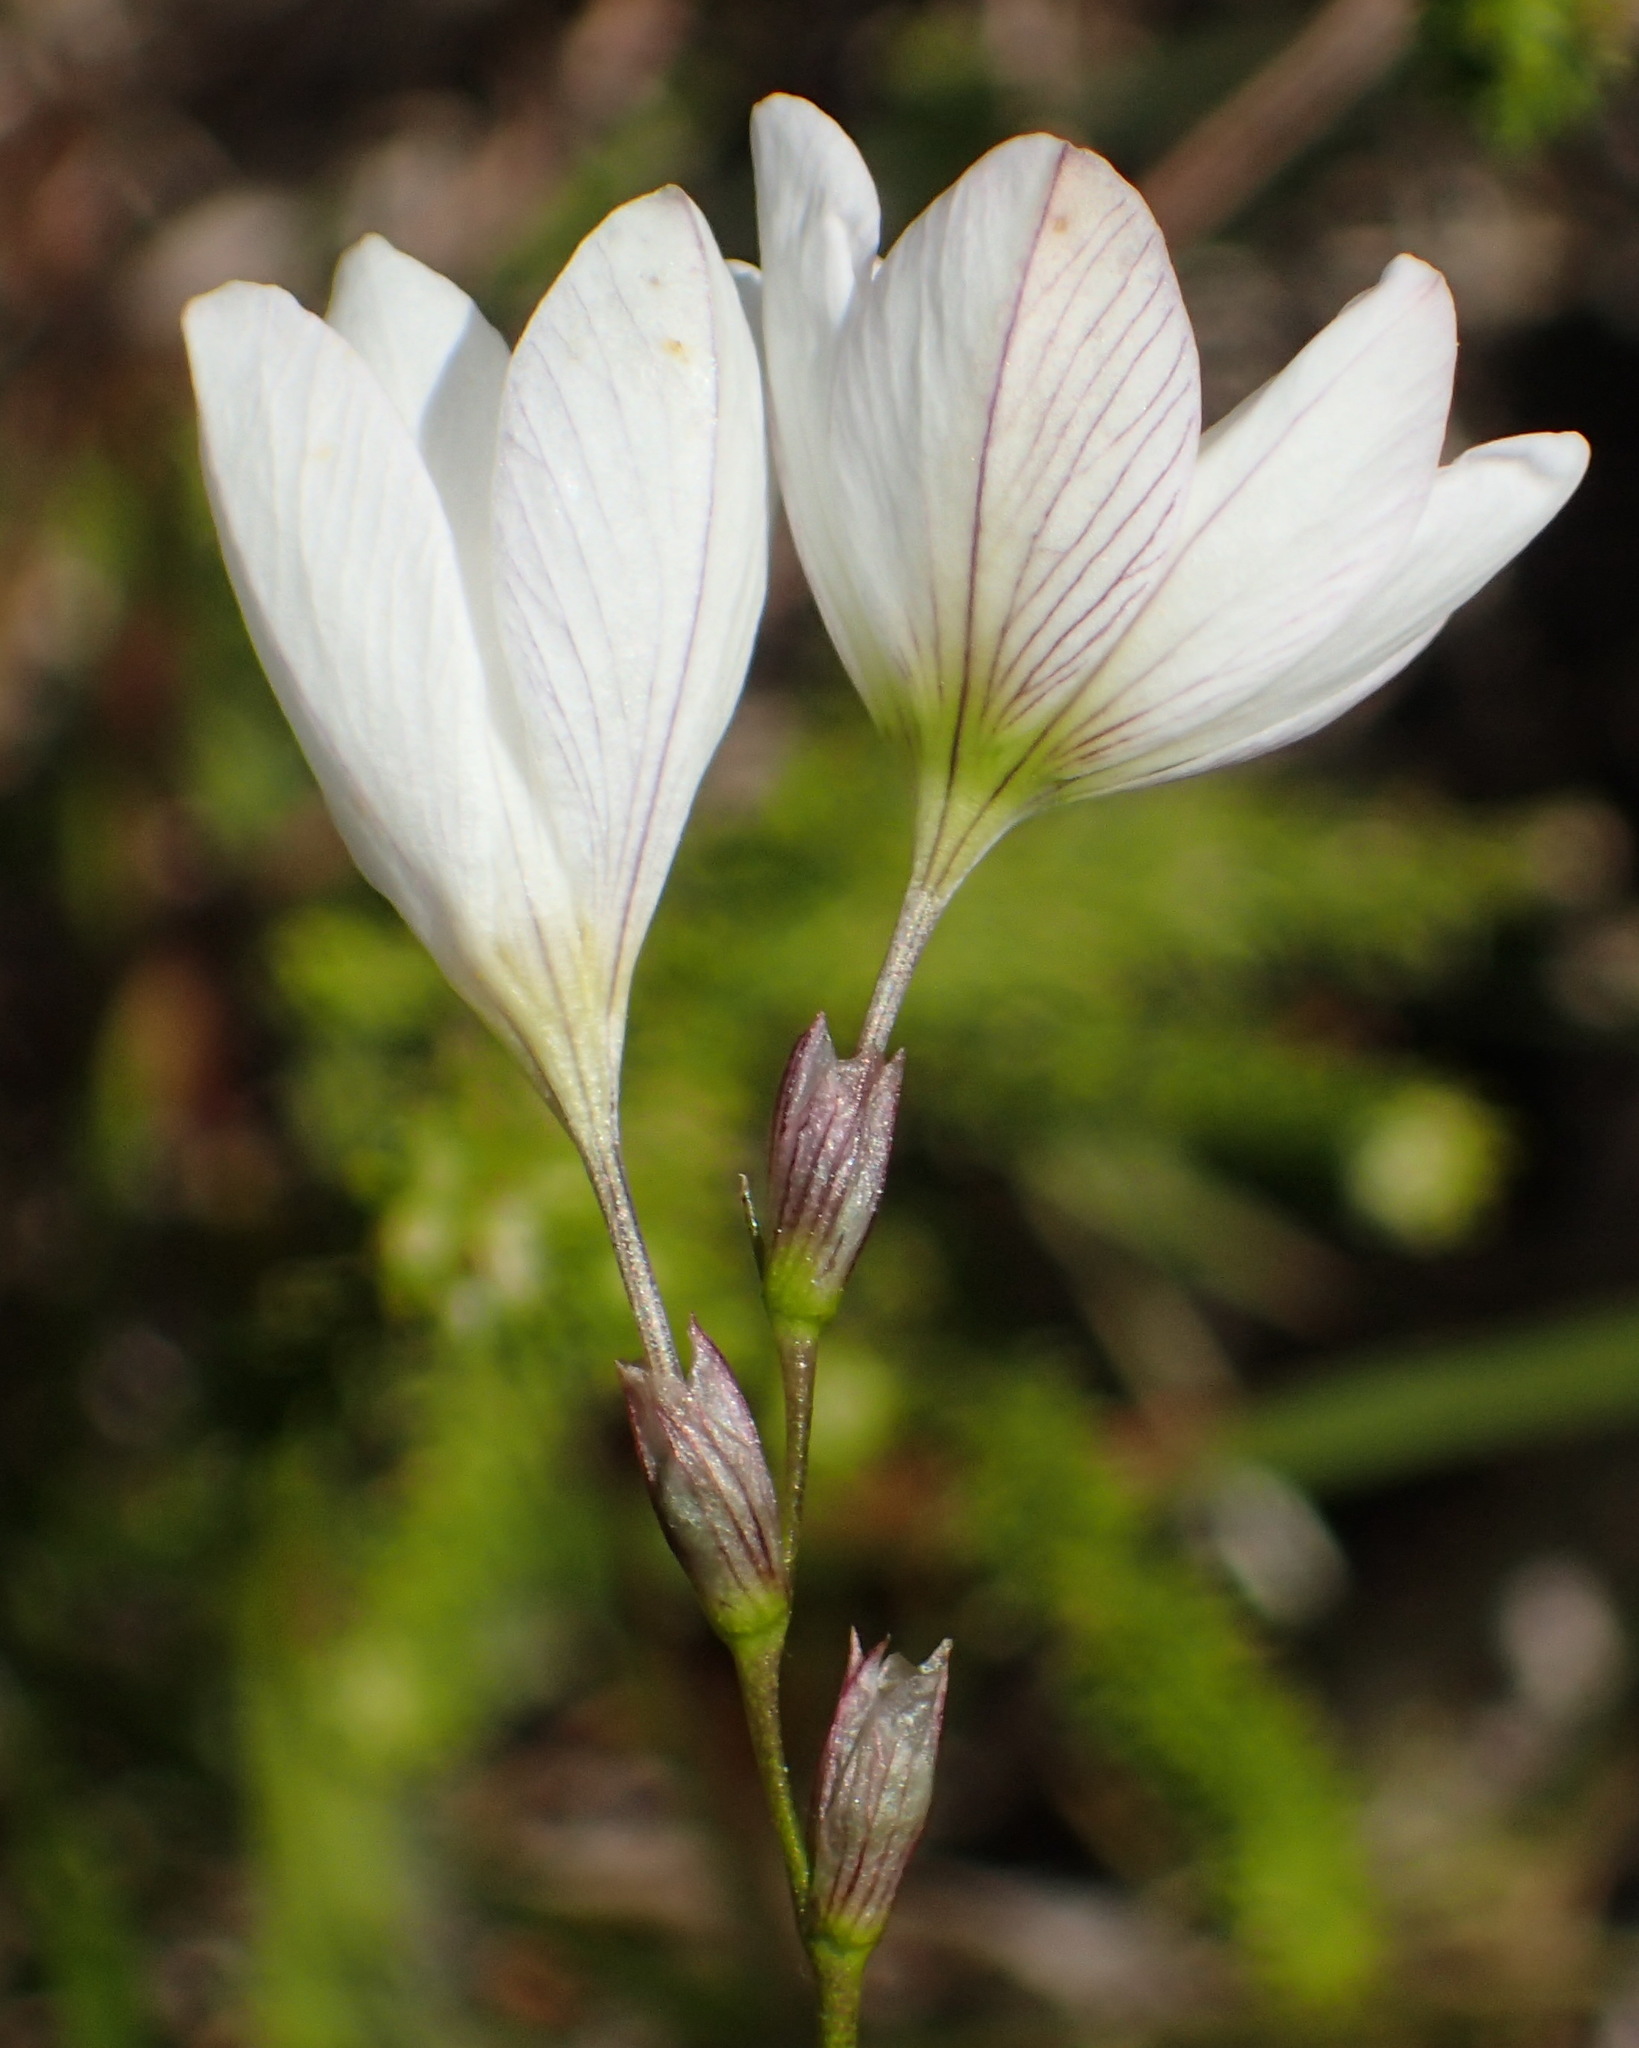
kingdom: Plantae
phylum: Tracheophyta
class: Liliopsida
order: Asparagales
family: Iridaceae
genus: Ixia
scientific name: Ixia orientalis
